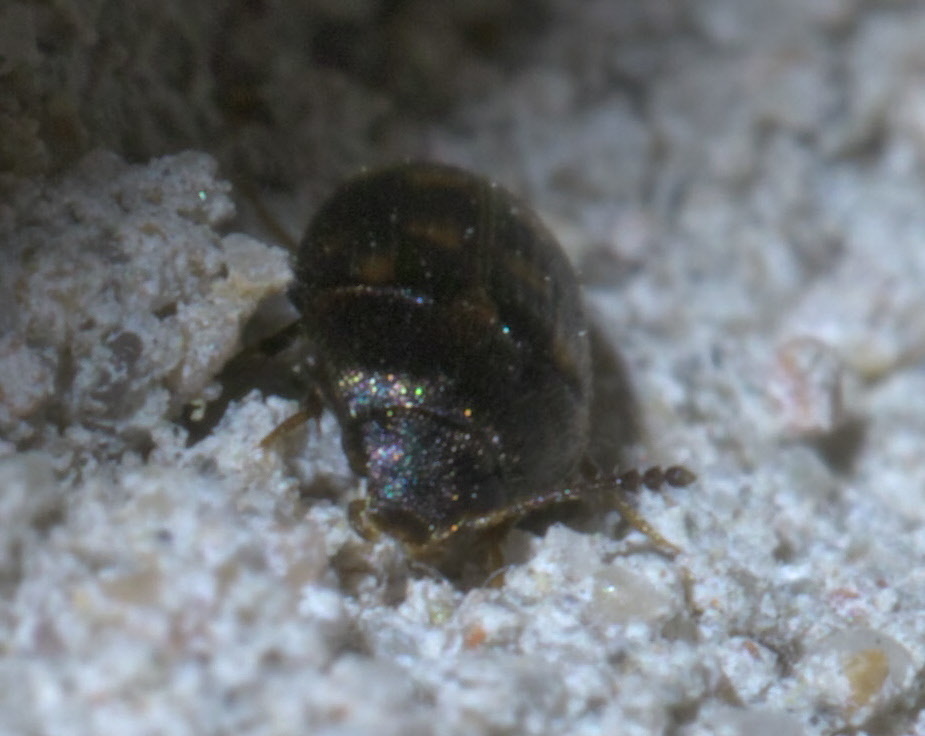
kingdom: Animalia
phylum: Arthropoda
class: Insecta
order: Coleoptera
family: Mycetophagidae
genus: Litargus
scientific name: Litargus sexpunctatus
